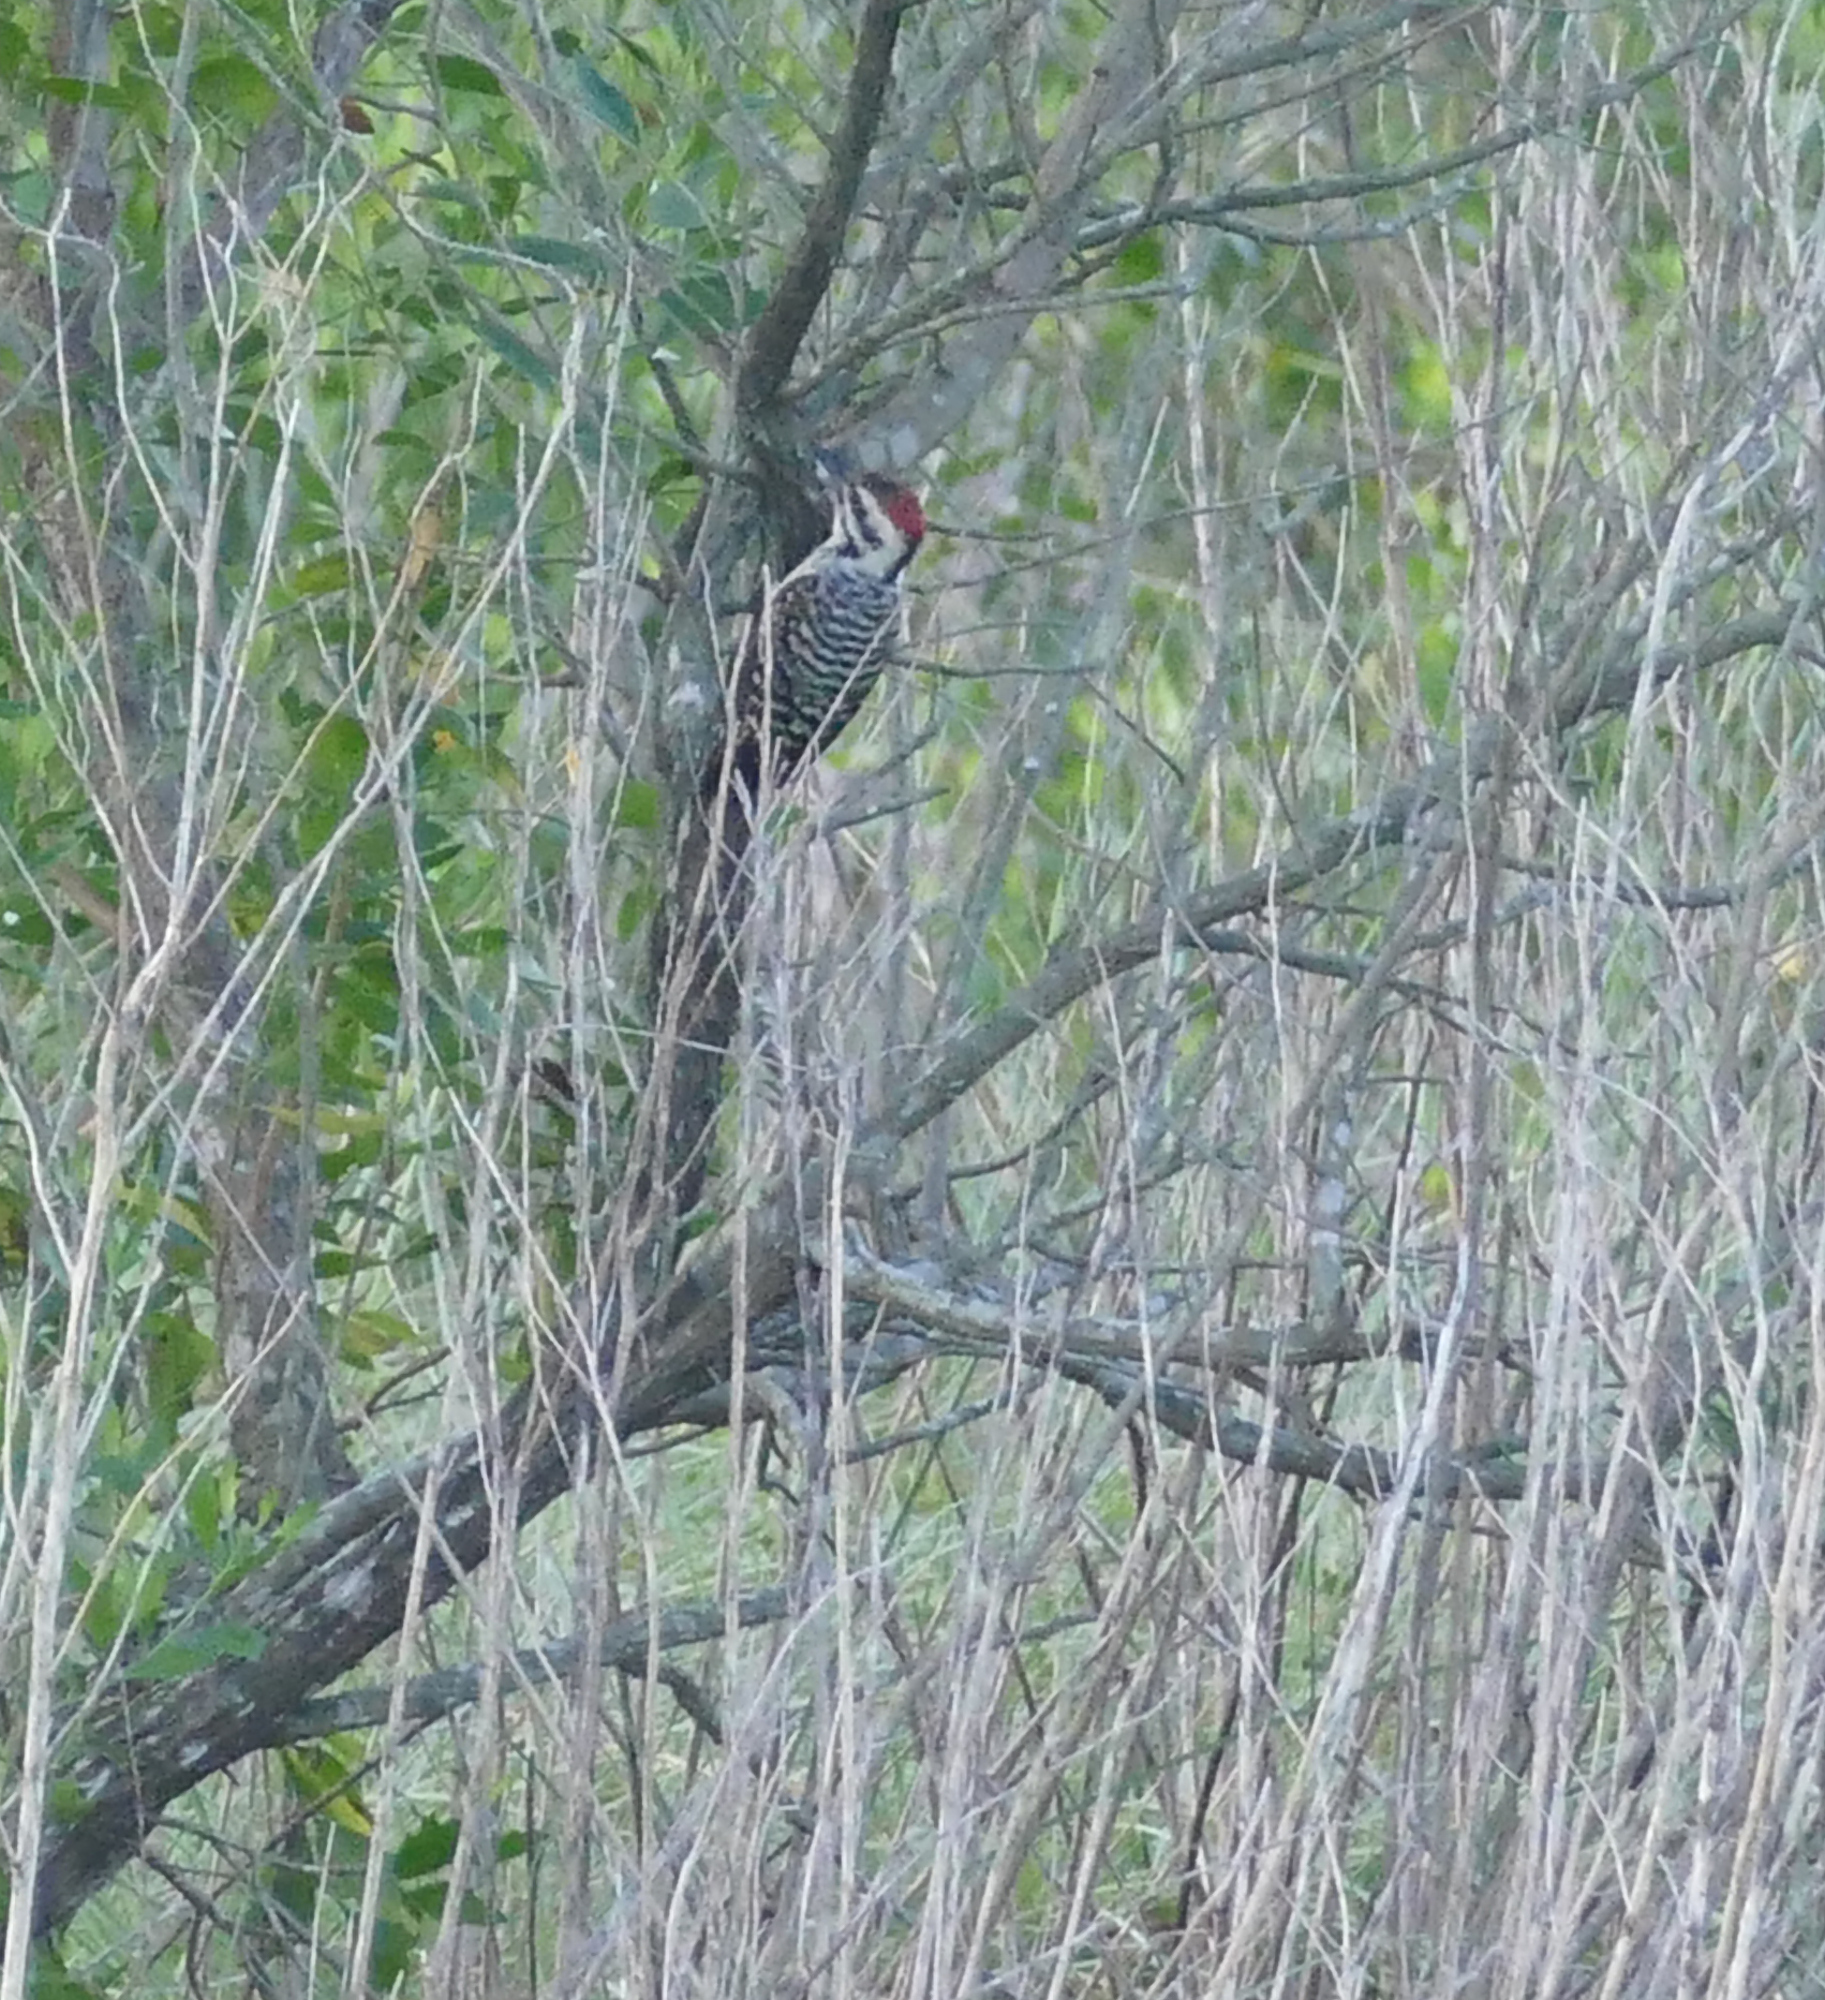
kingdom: Animalia
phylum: Chordata
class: Aves
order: Piciformes
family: Picidae
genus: Dryobates
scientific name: Dryobates scalaris
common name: Ladder-backed woodpecker
